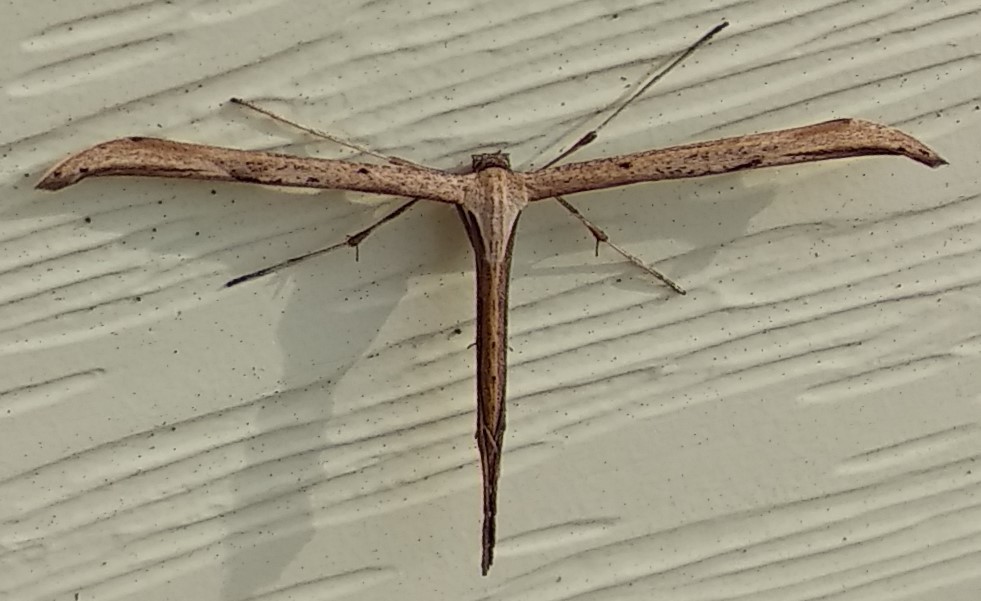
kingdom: Animalia
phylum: Arthropoda
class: Insecta
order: Lepidoptera
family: Pterophoridae
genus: Emmelina
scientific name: Emmelina monodactyla
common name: Common plume
